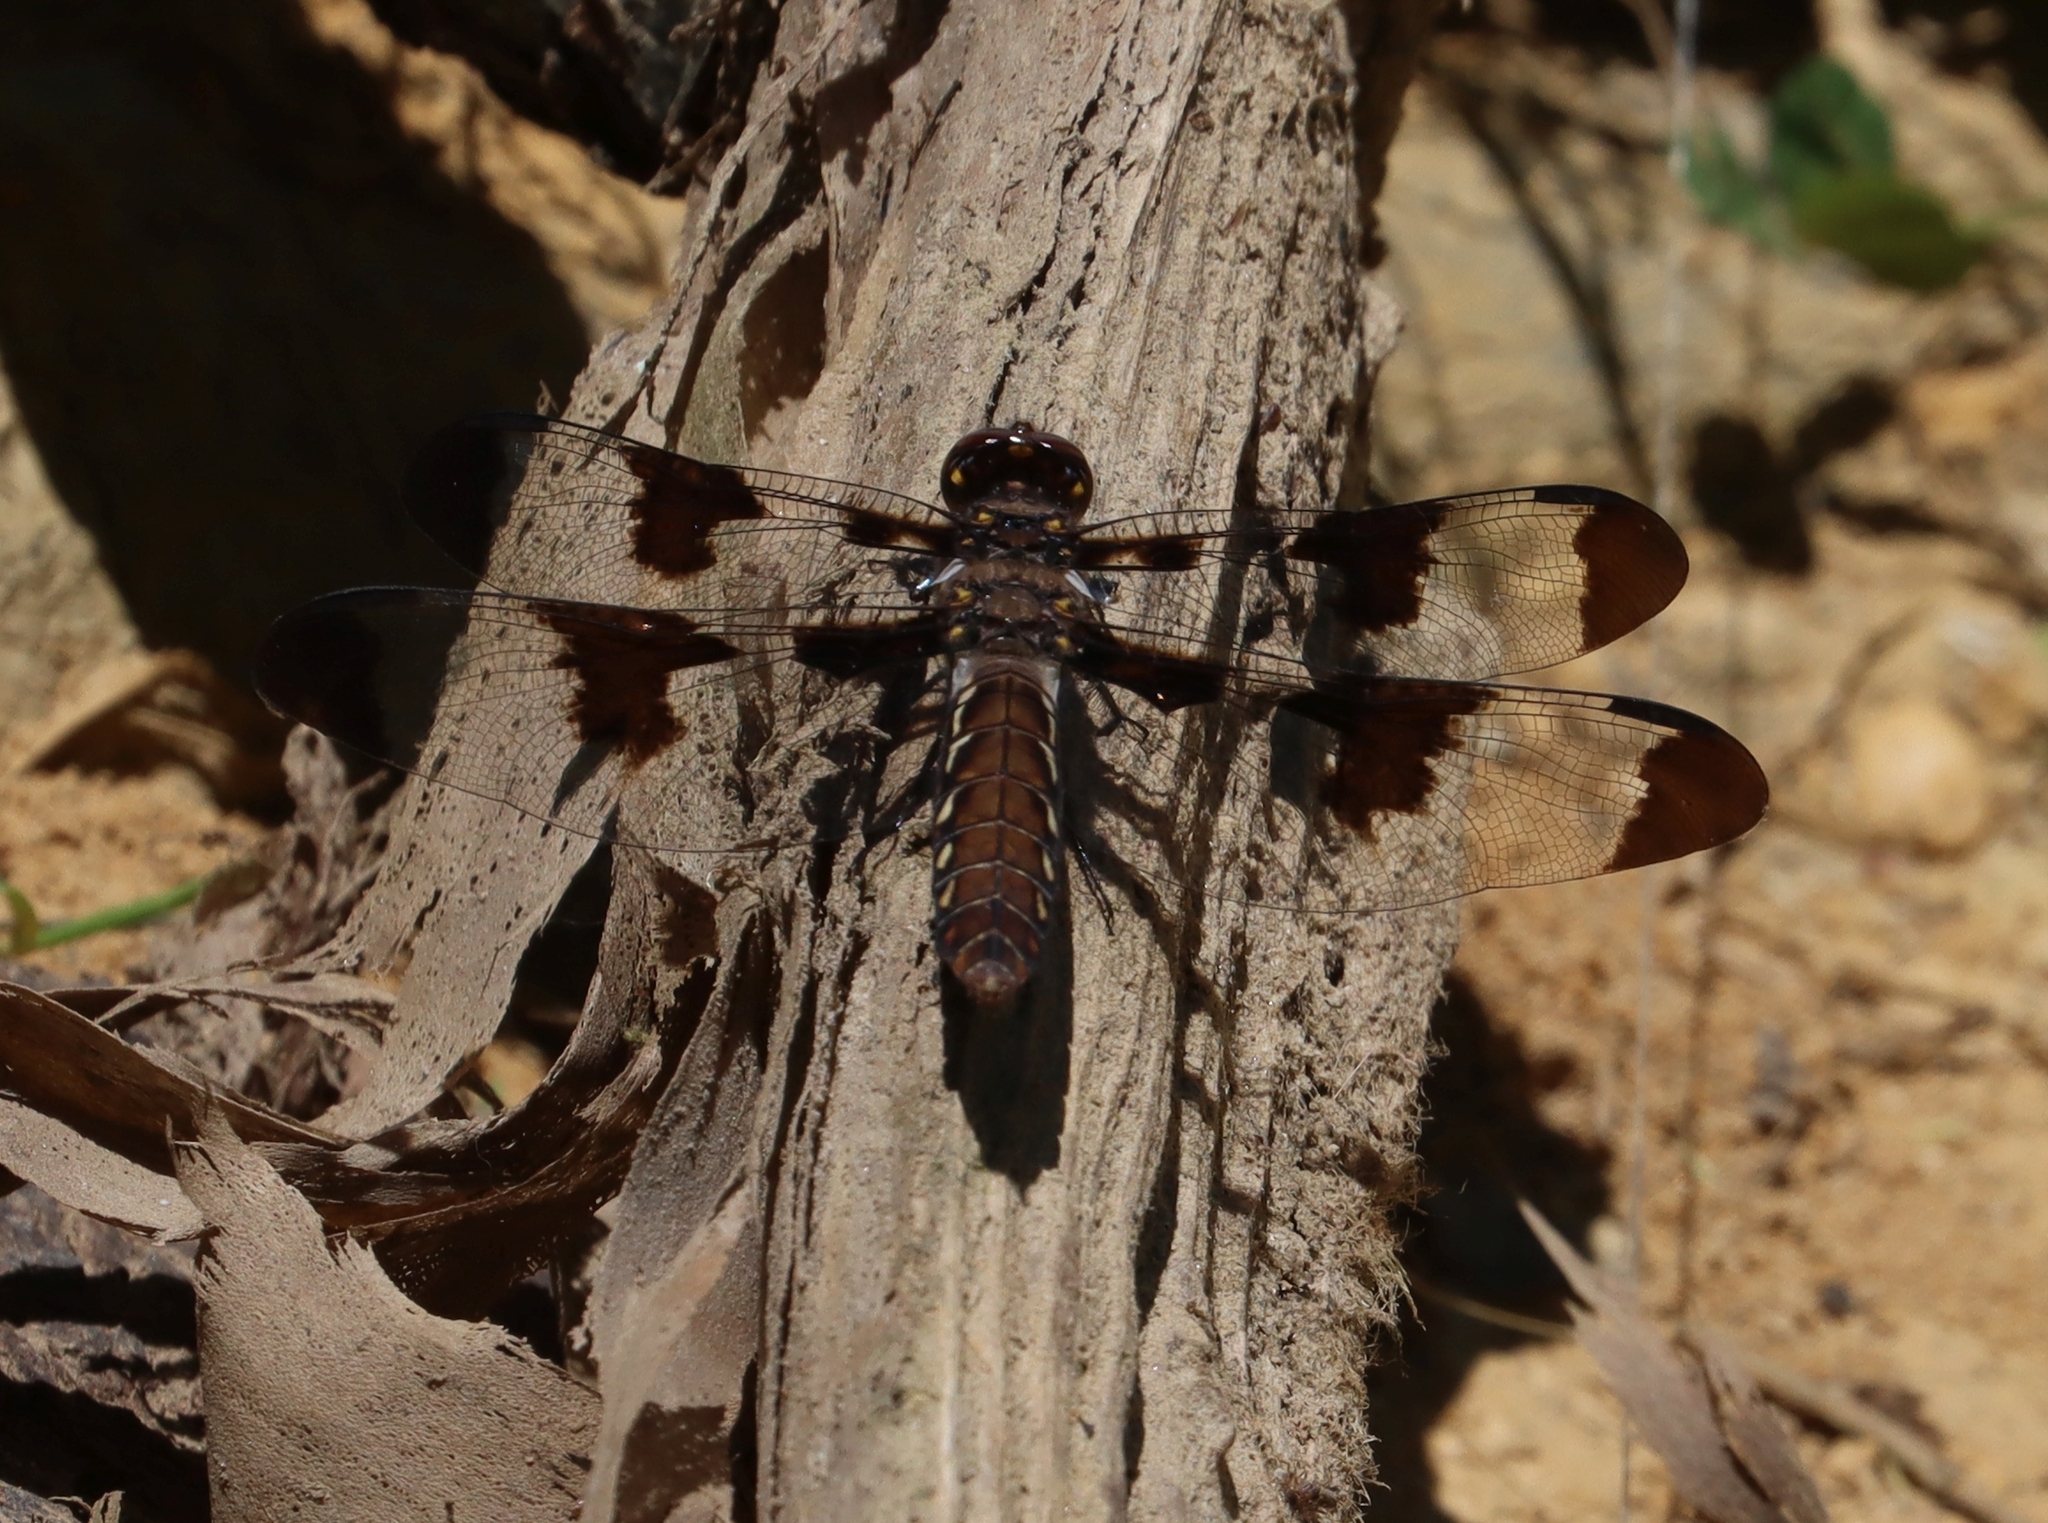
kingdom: Animalia
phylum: Arthropoda
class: Insecta
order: Odonata
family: Libellulidae
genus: Plathemis
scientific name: Plathemis lydia
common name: Common whitetail
